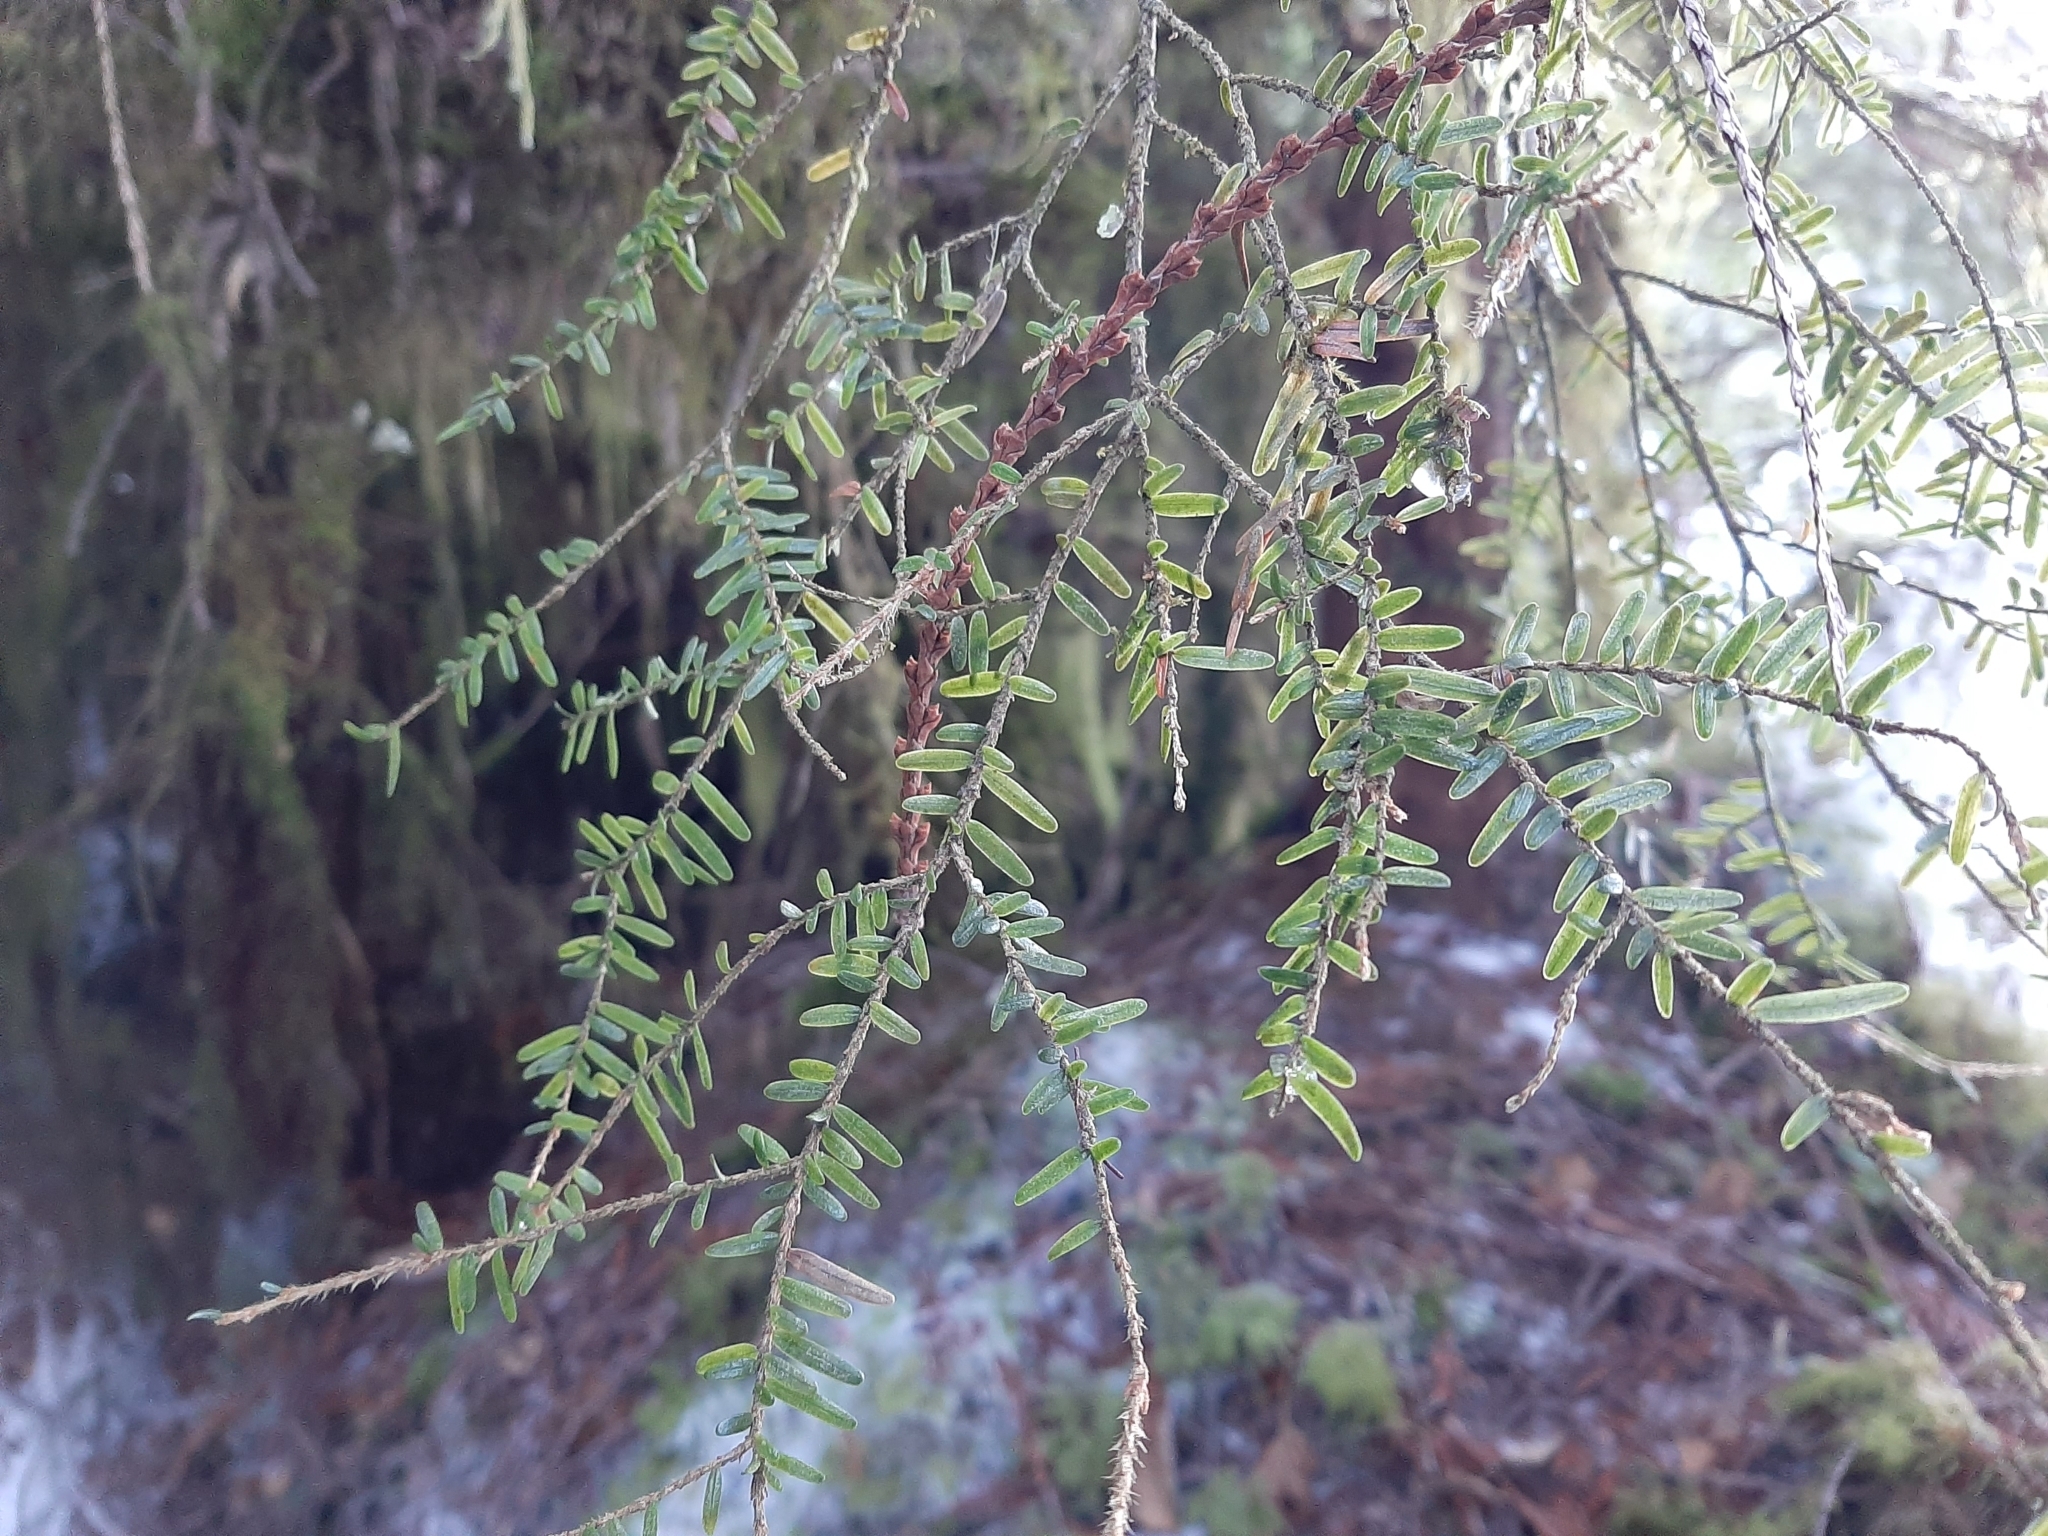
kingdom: Plantae
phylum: Tracheophyta
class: Pinopsida
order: Pinales
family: Pinaceae
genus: Tsuga
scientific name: Tsuga heterophylla
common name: Western hemlock
